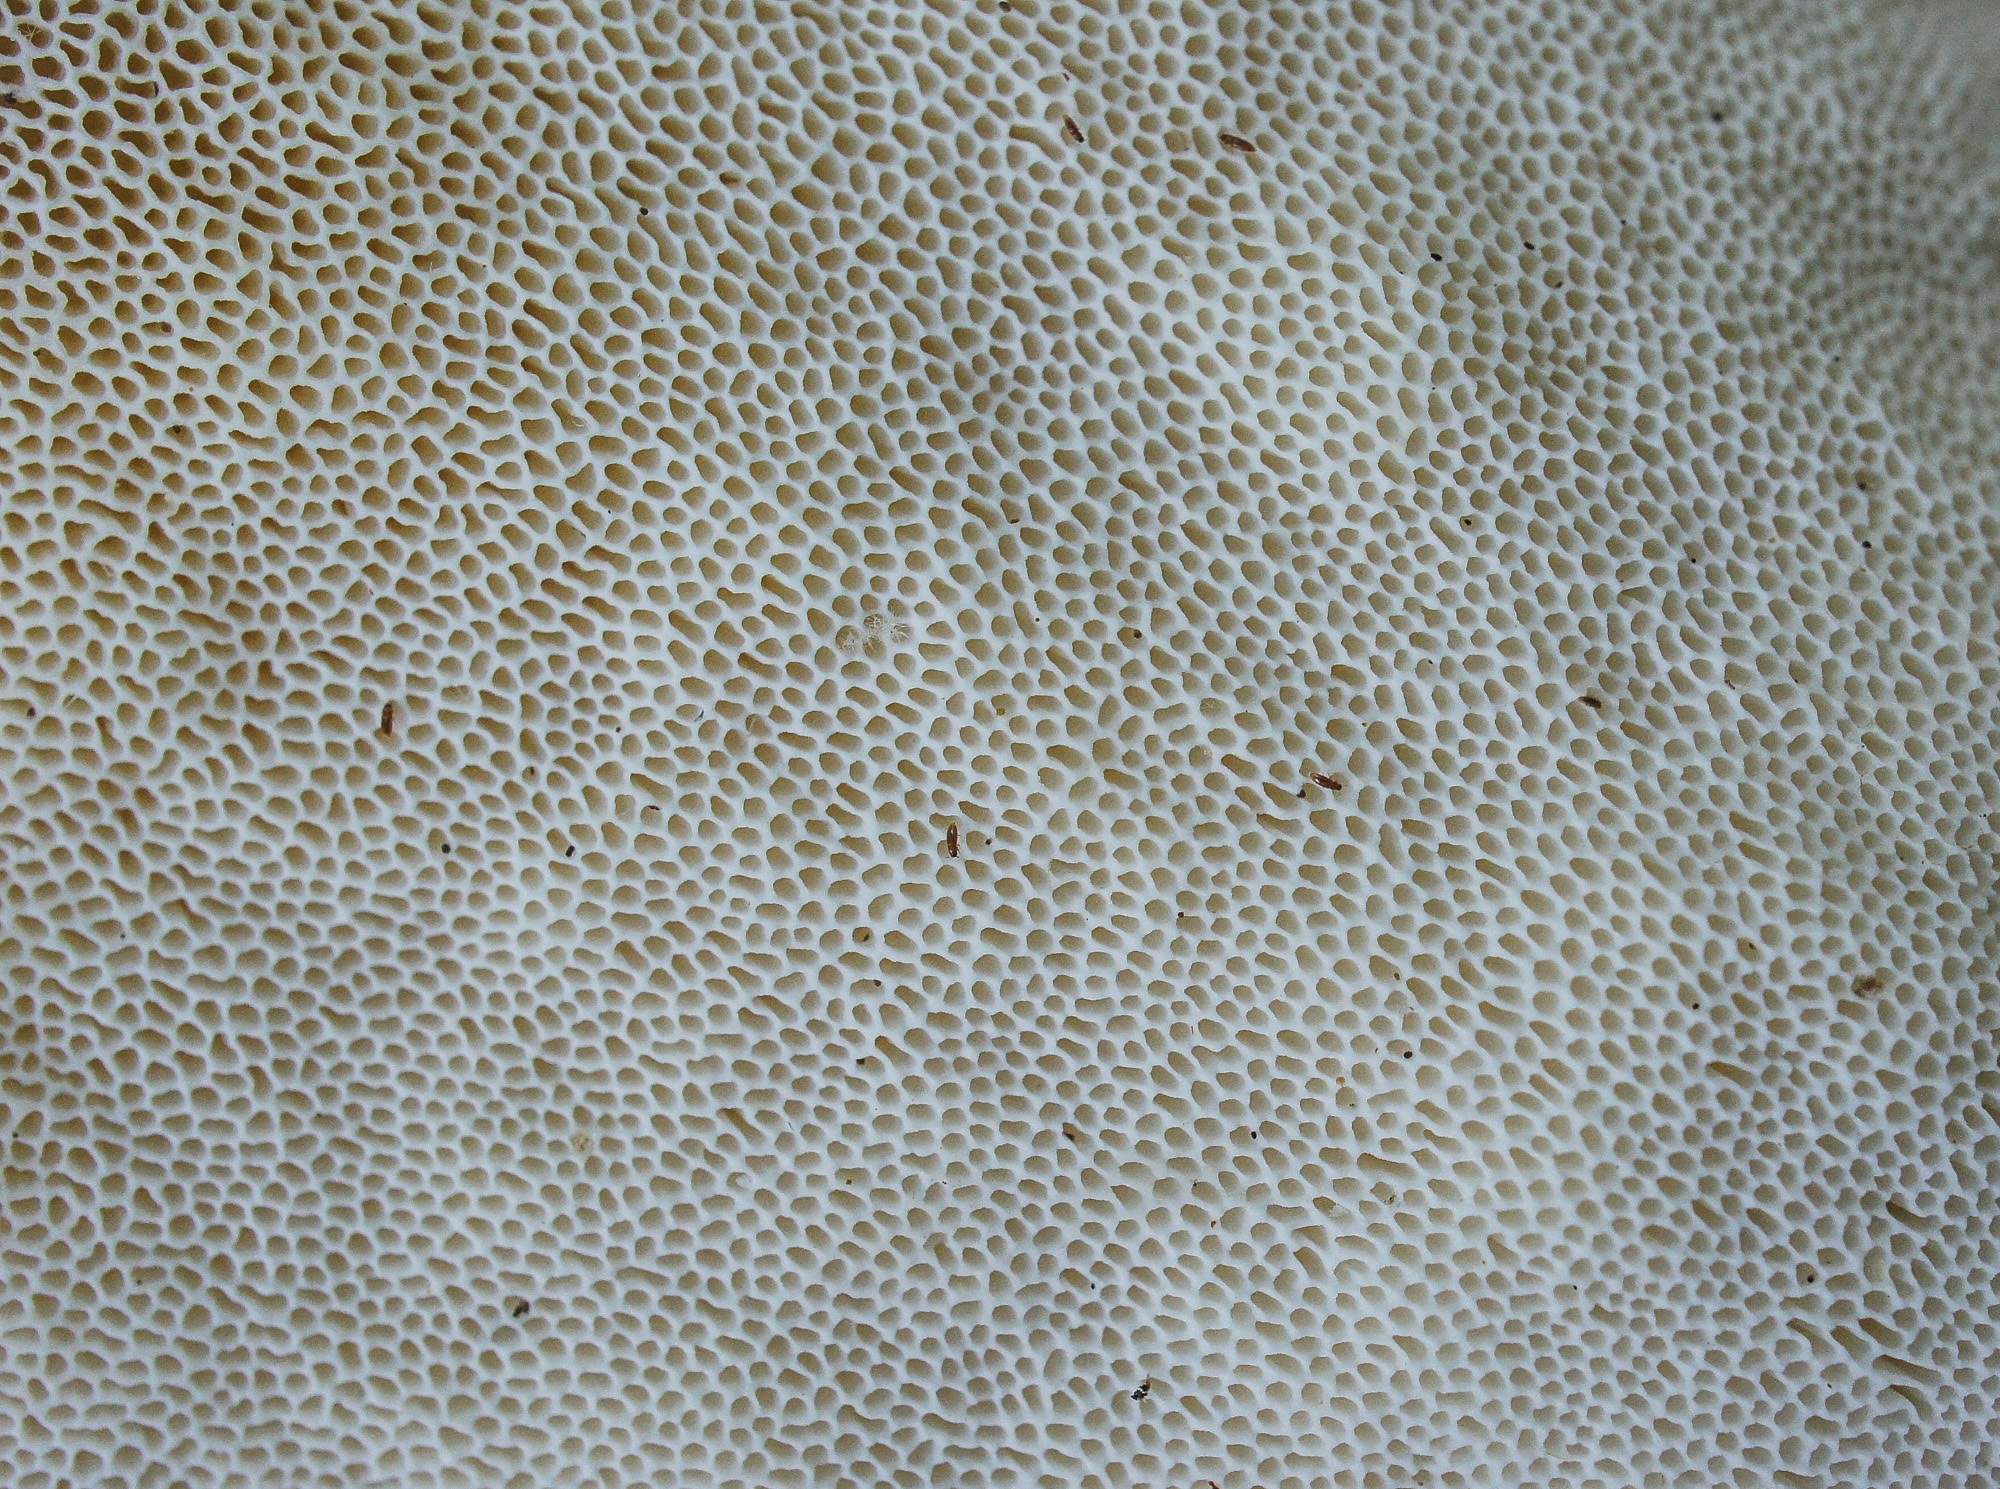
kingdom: Fungi
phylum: Basidiomycota
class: Agaricomycetes
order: Polyporales
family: Polyporaceae
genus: Trametes
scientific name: Trametes lactinea
